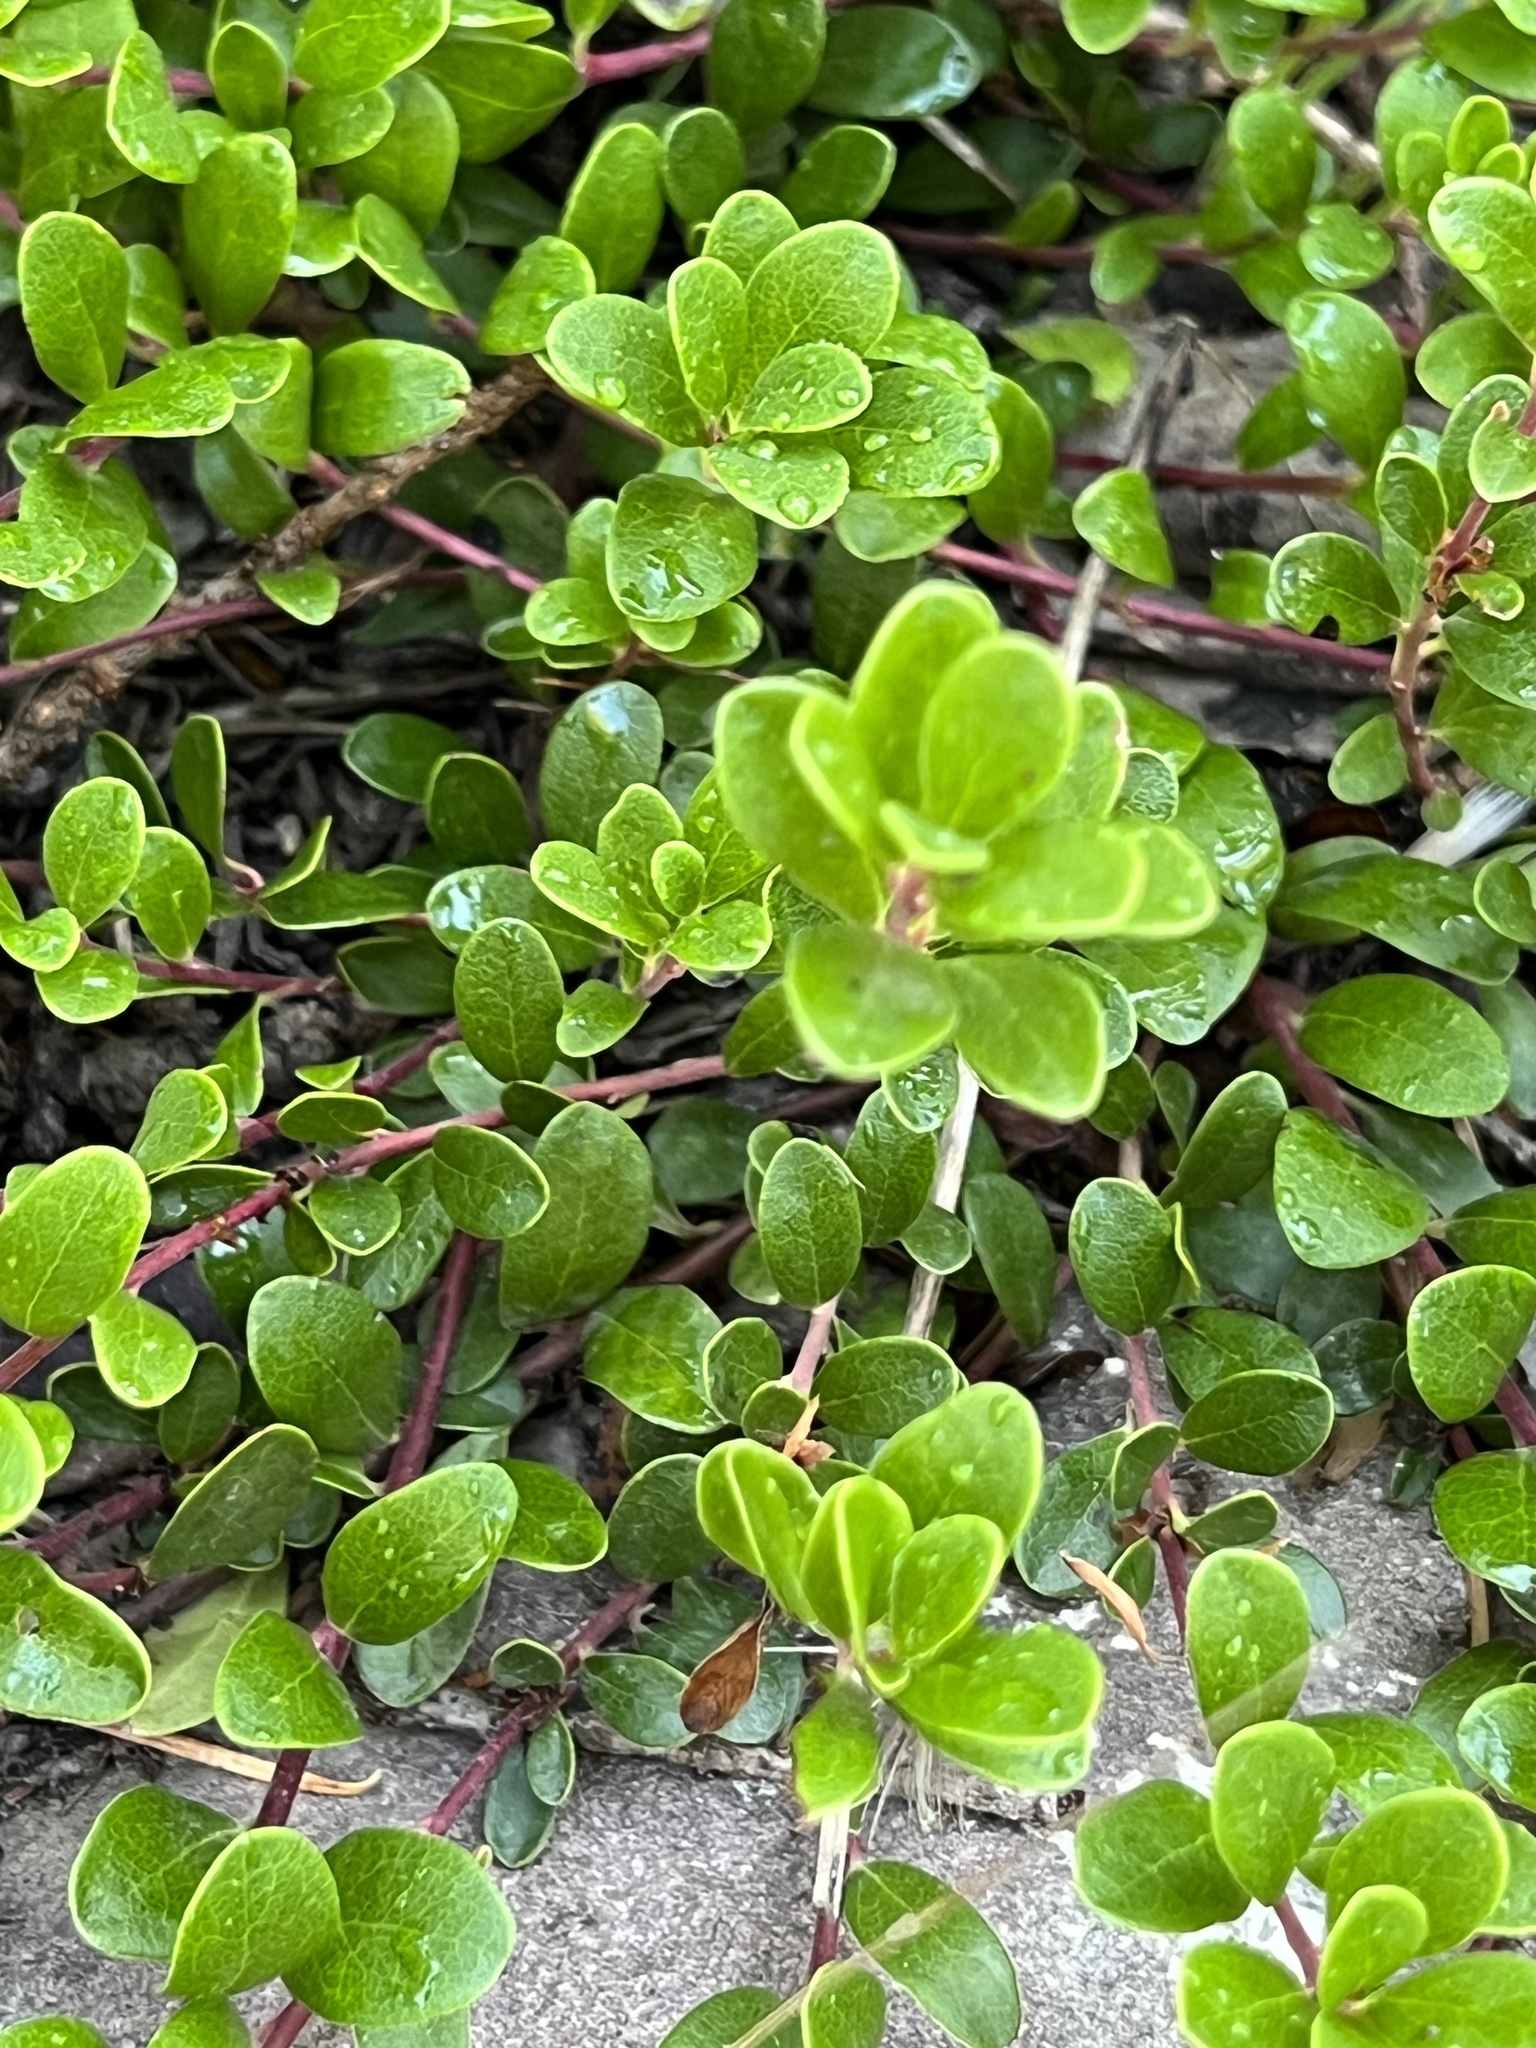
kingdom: Plantae
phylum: Tracheophyta
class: Magnoliopsida
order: Ericales
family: Ericaceae
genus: Arctostaphylos
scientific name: Arctostaphylos uva-ursi
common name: Bearberry
